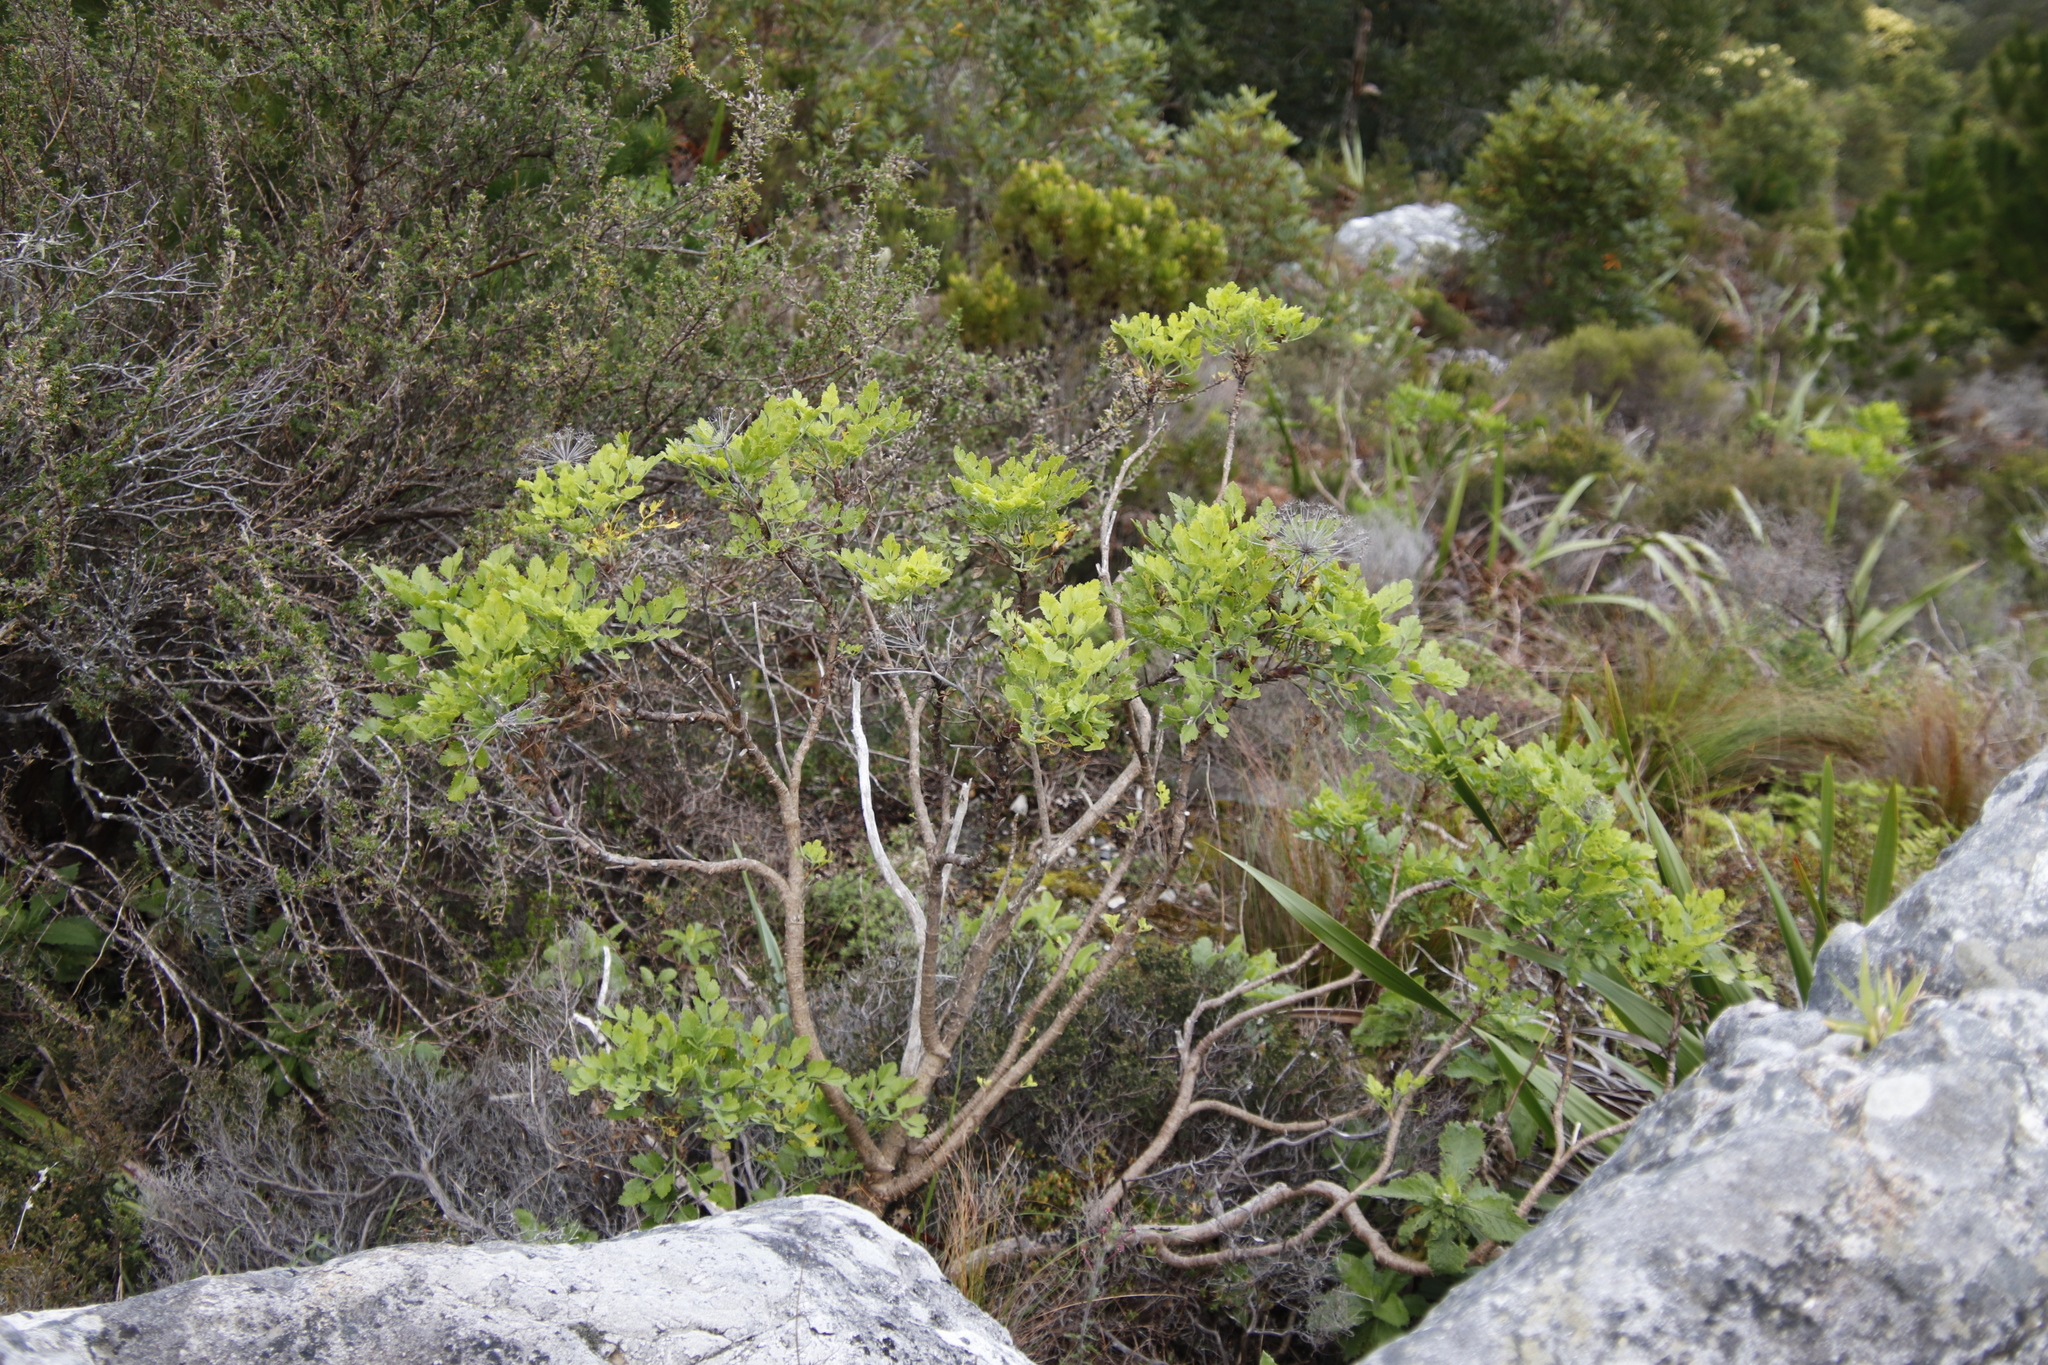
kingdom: Plantae
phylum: Tracheophyta
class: Magnoliopsida
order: Apiales
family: Apiaceae
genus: Notobubon
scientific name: Notobubon galbanum
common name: Blisterbush
